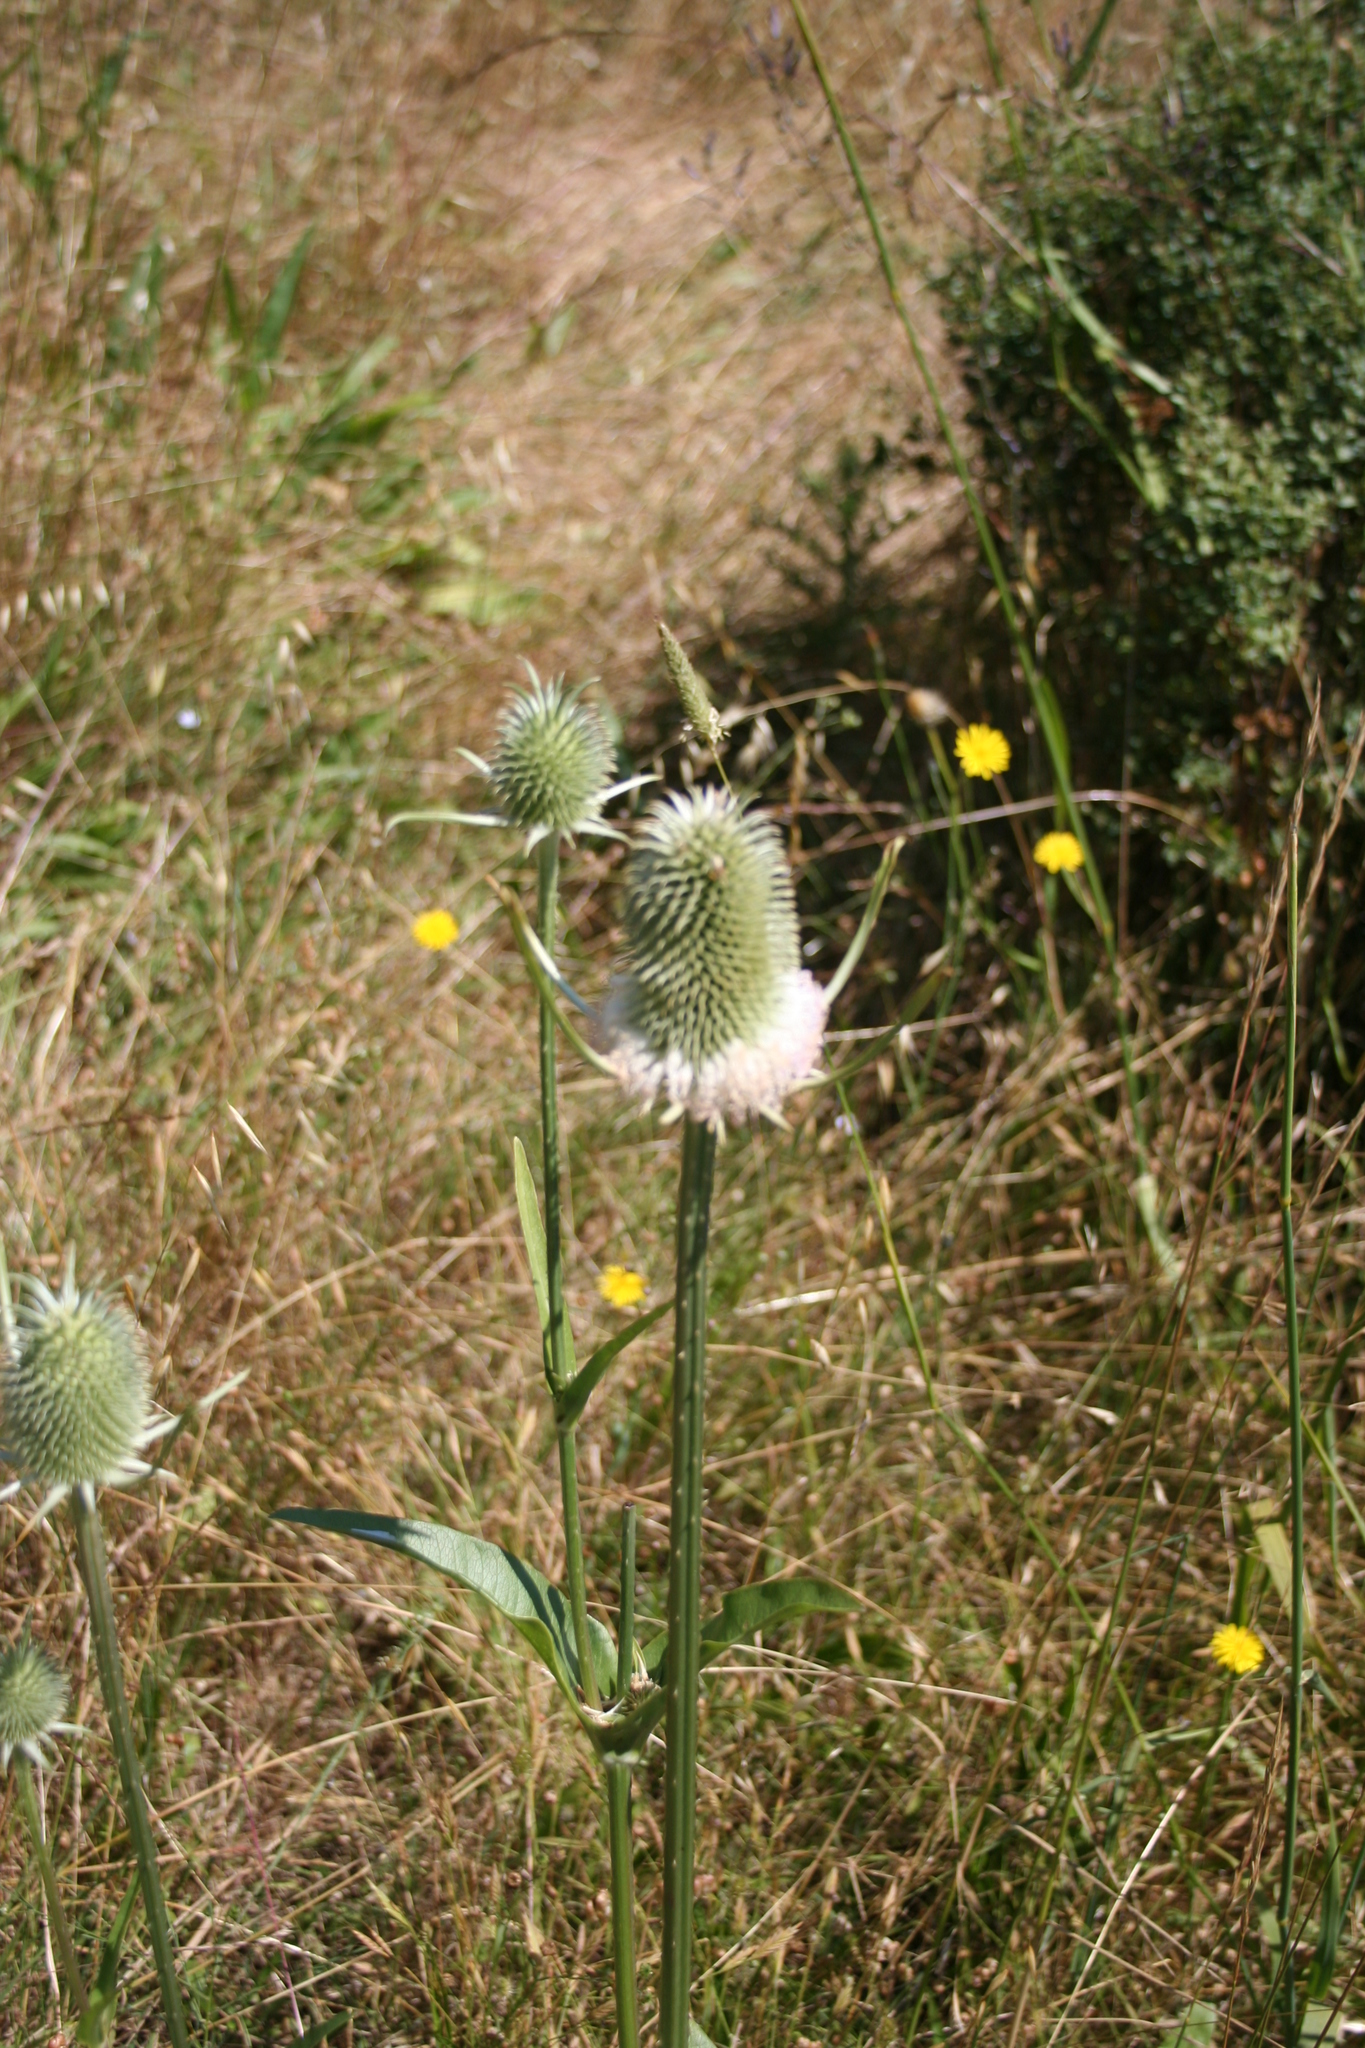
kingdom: Plantae
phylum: Tracheophyta
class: Magnoliopsida
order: Dipsacales
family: Caprifoliaceae
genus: Dipsacus
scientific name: Dipsacus sativus
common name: Fuller's teasel
